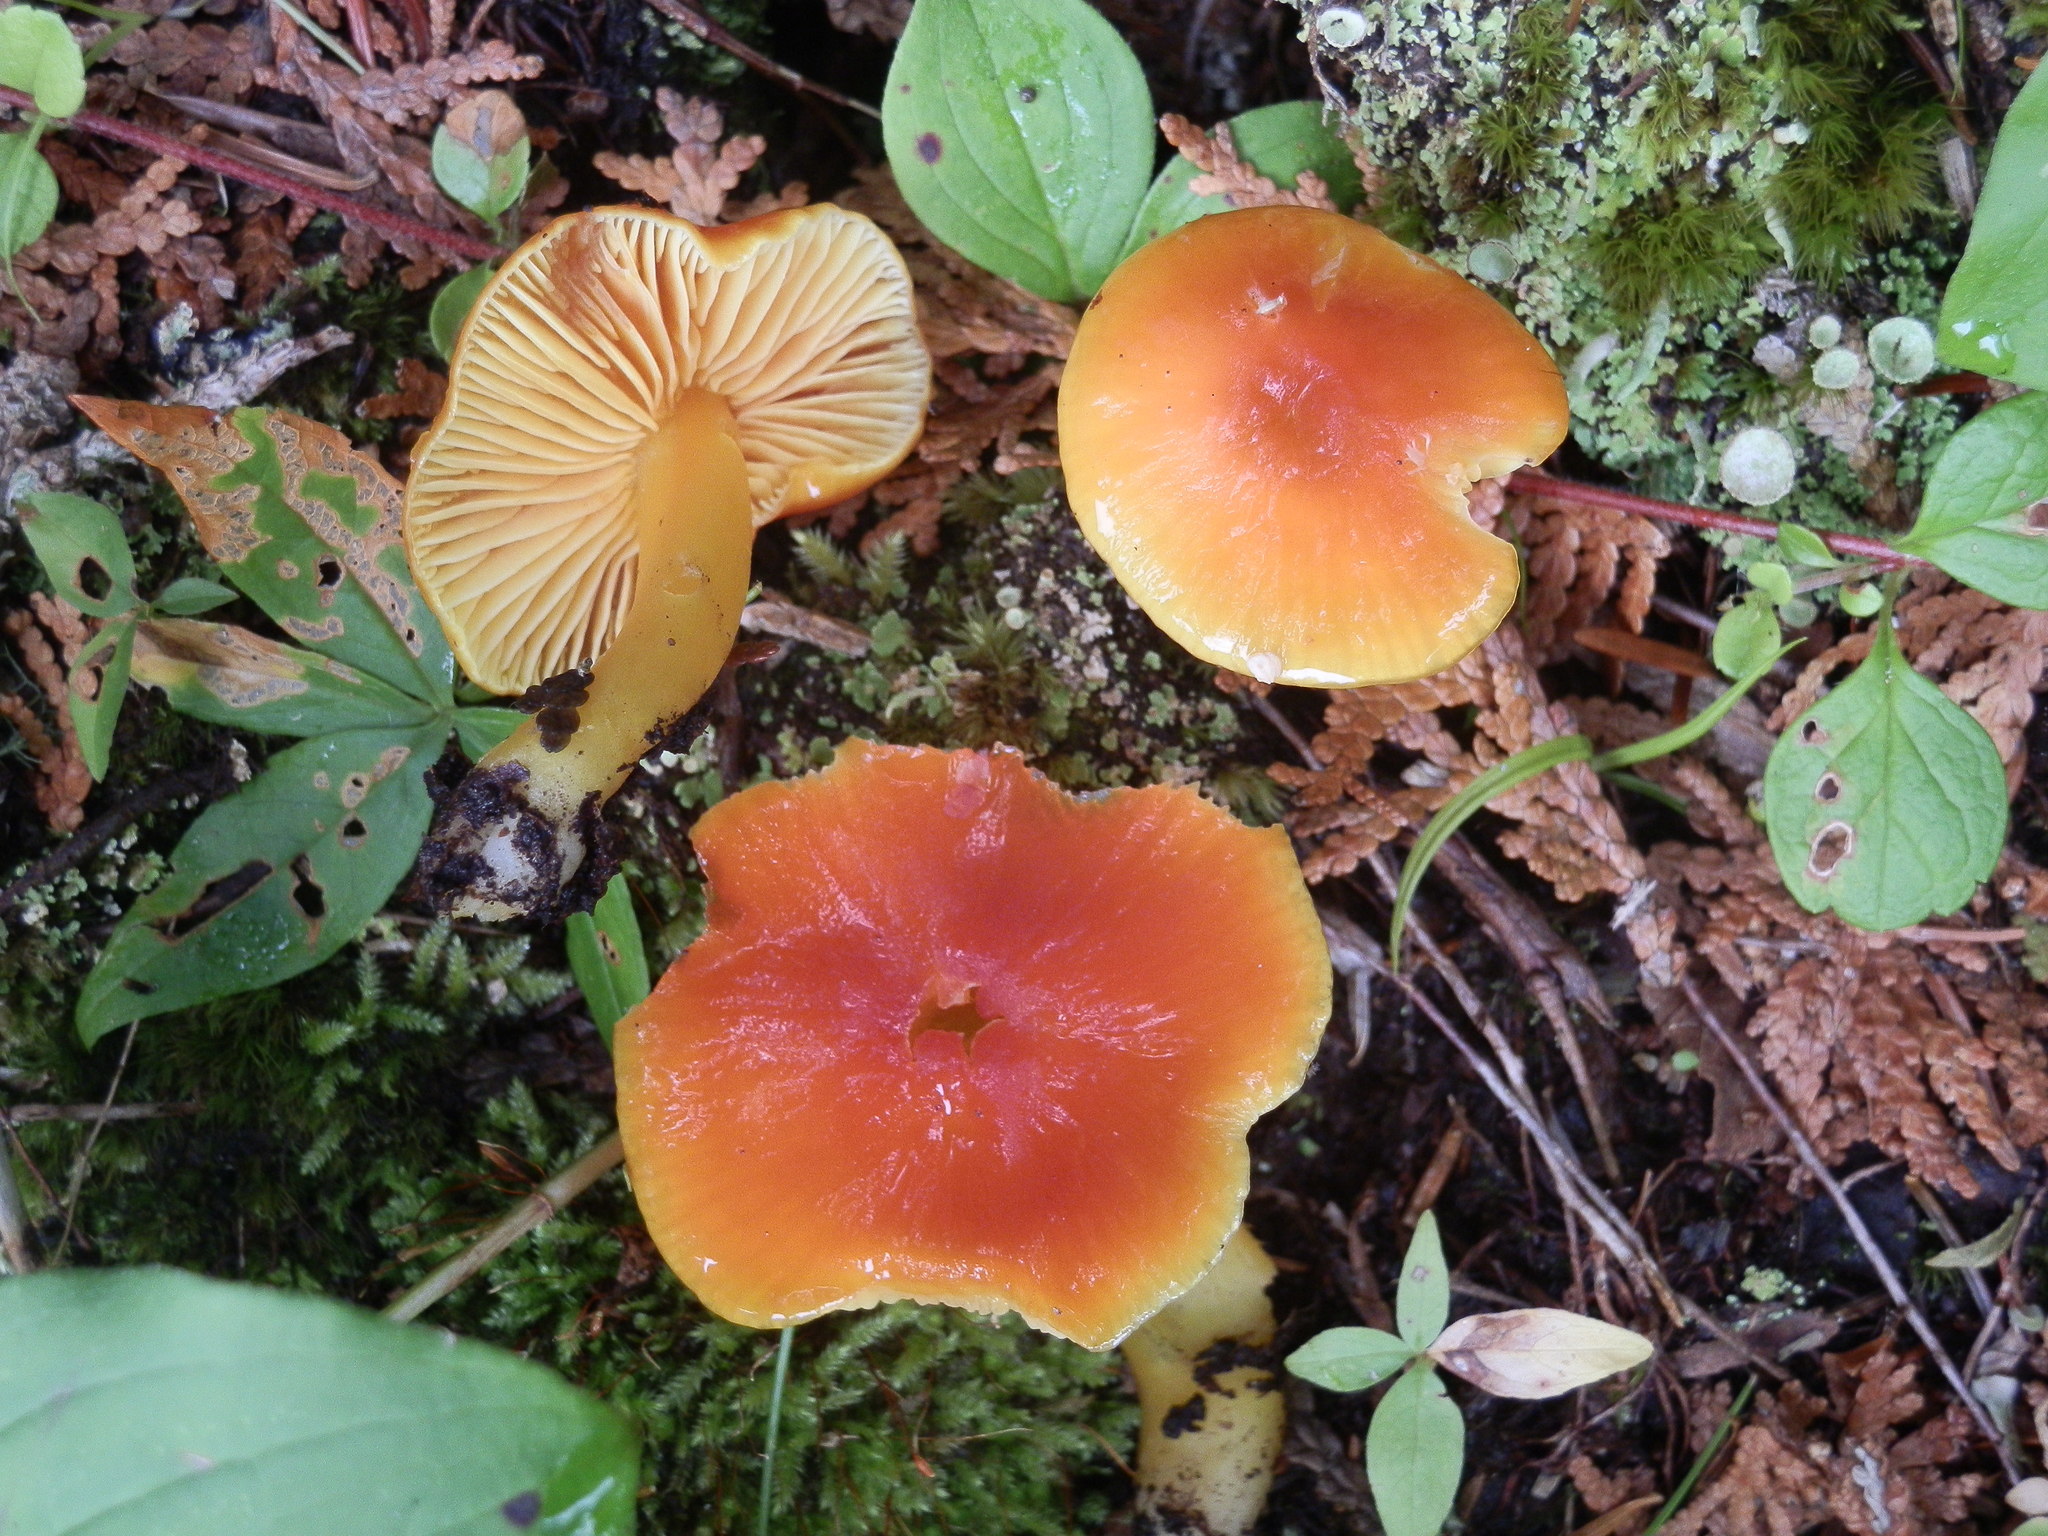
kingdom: Fungi
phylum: Basidiomycota
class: Agaricomycetes
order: Agaricales
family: Hygrophoraceae
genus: Hygrocybe
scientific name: Hygrocybe aurantiosplendens
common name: Orange waxcap
